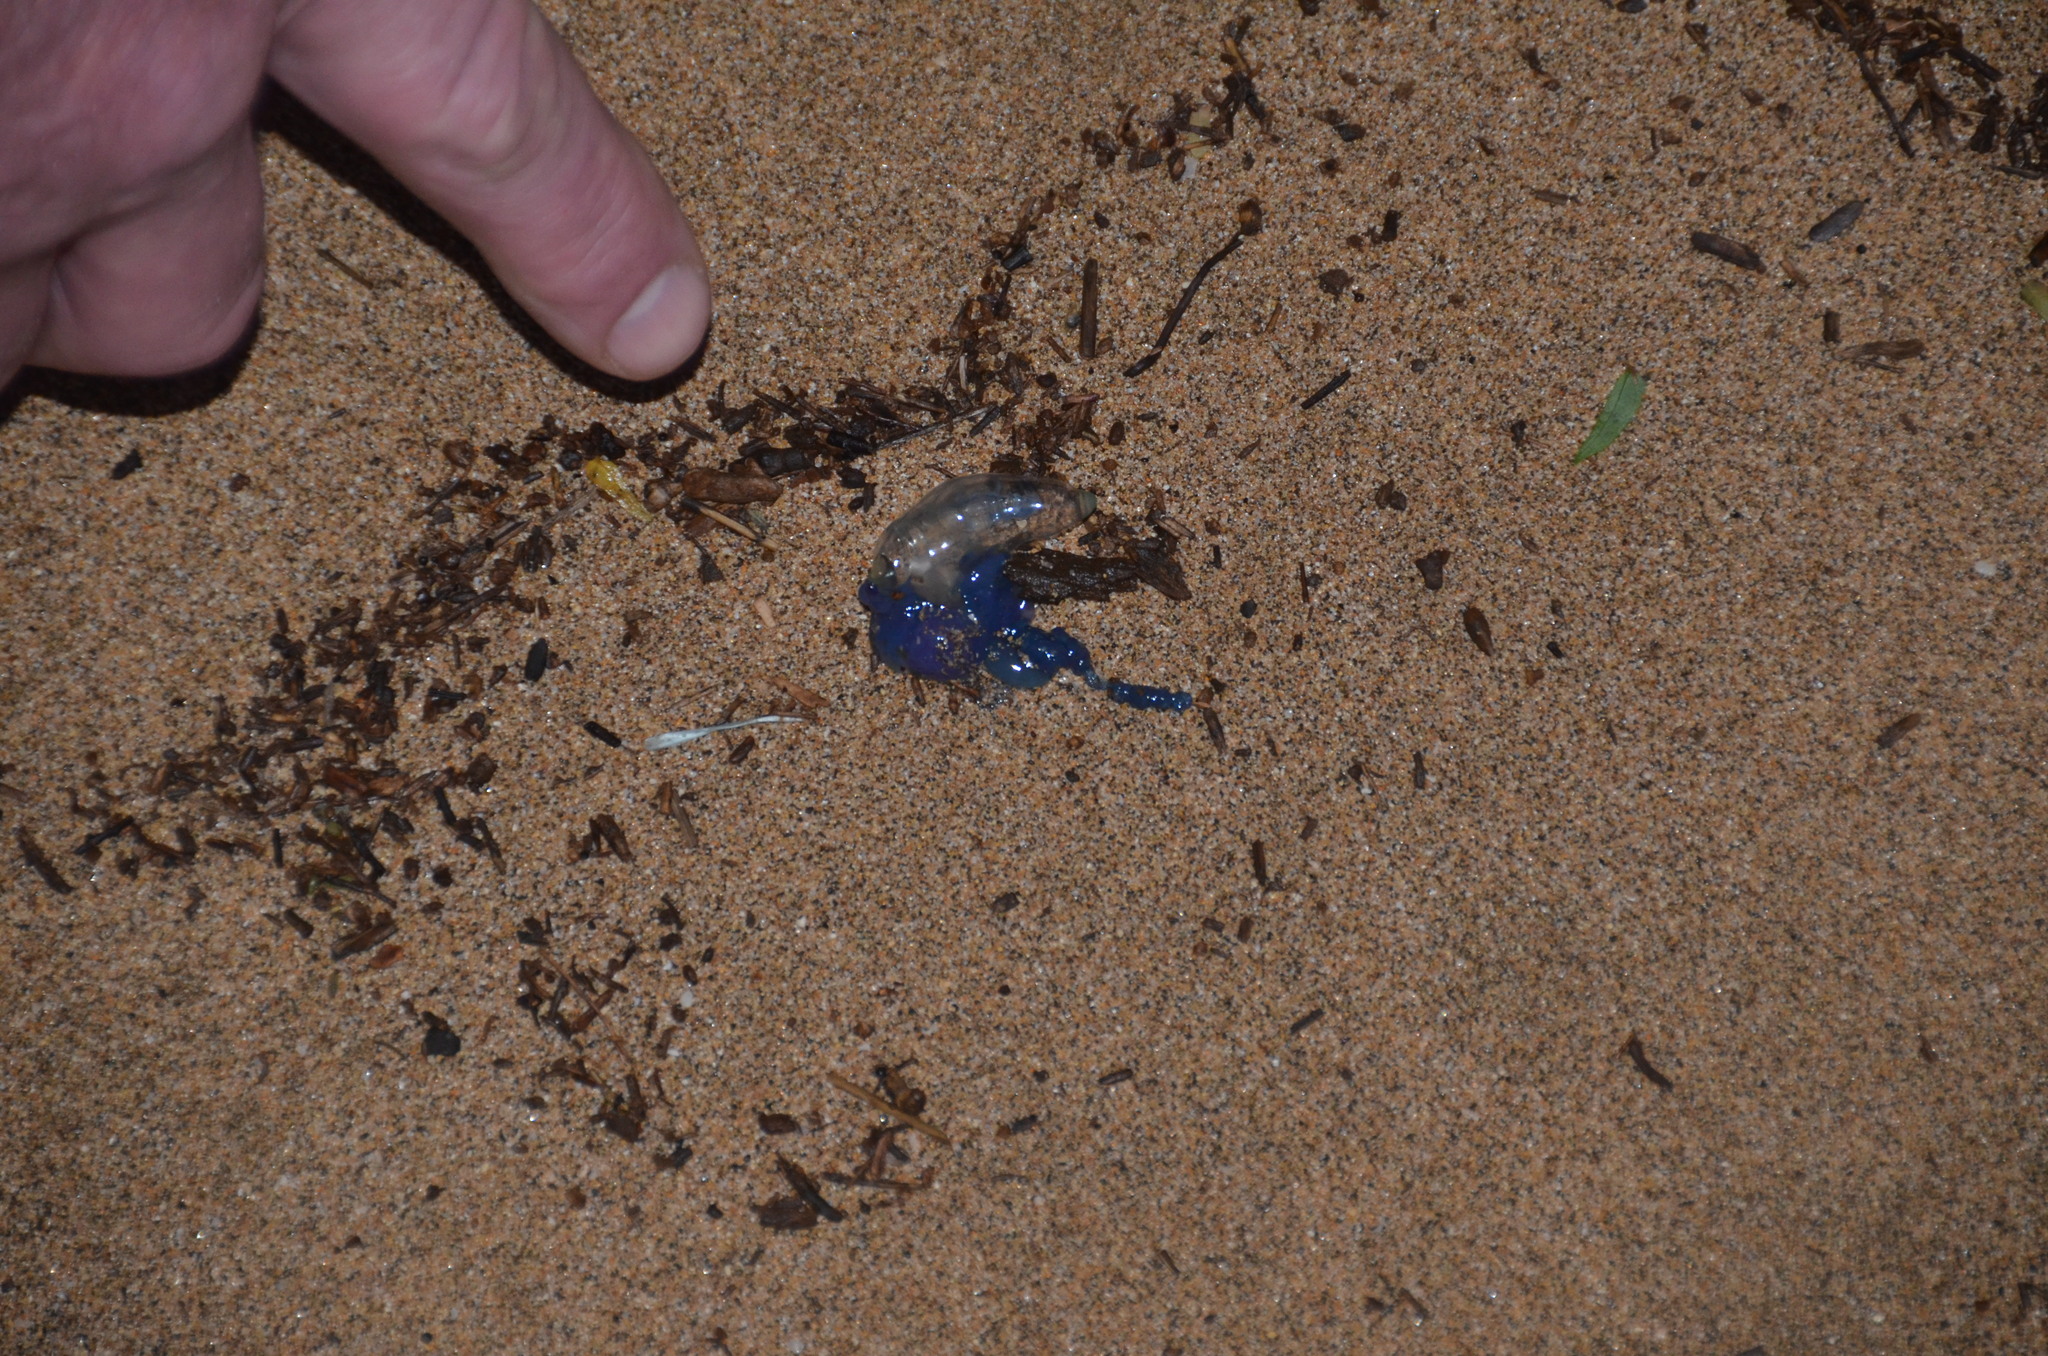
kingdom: Animalia
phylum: Cnidaria
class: Hydrozoa
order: Siphonophorae
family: Physaliidae
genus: Physalia
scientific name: Physalia physalis
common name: Portuguese man-of-war
